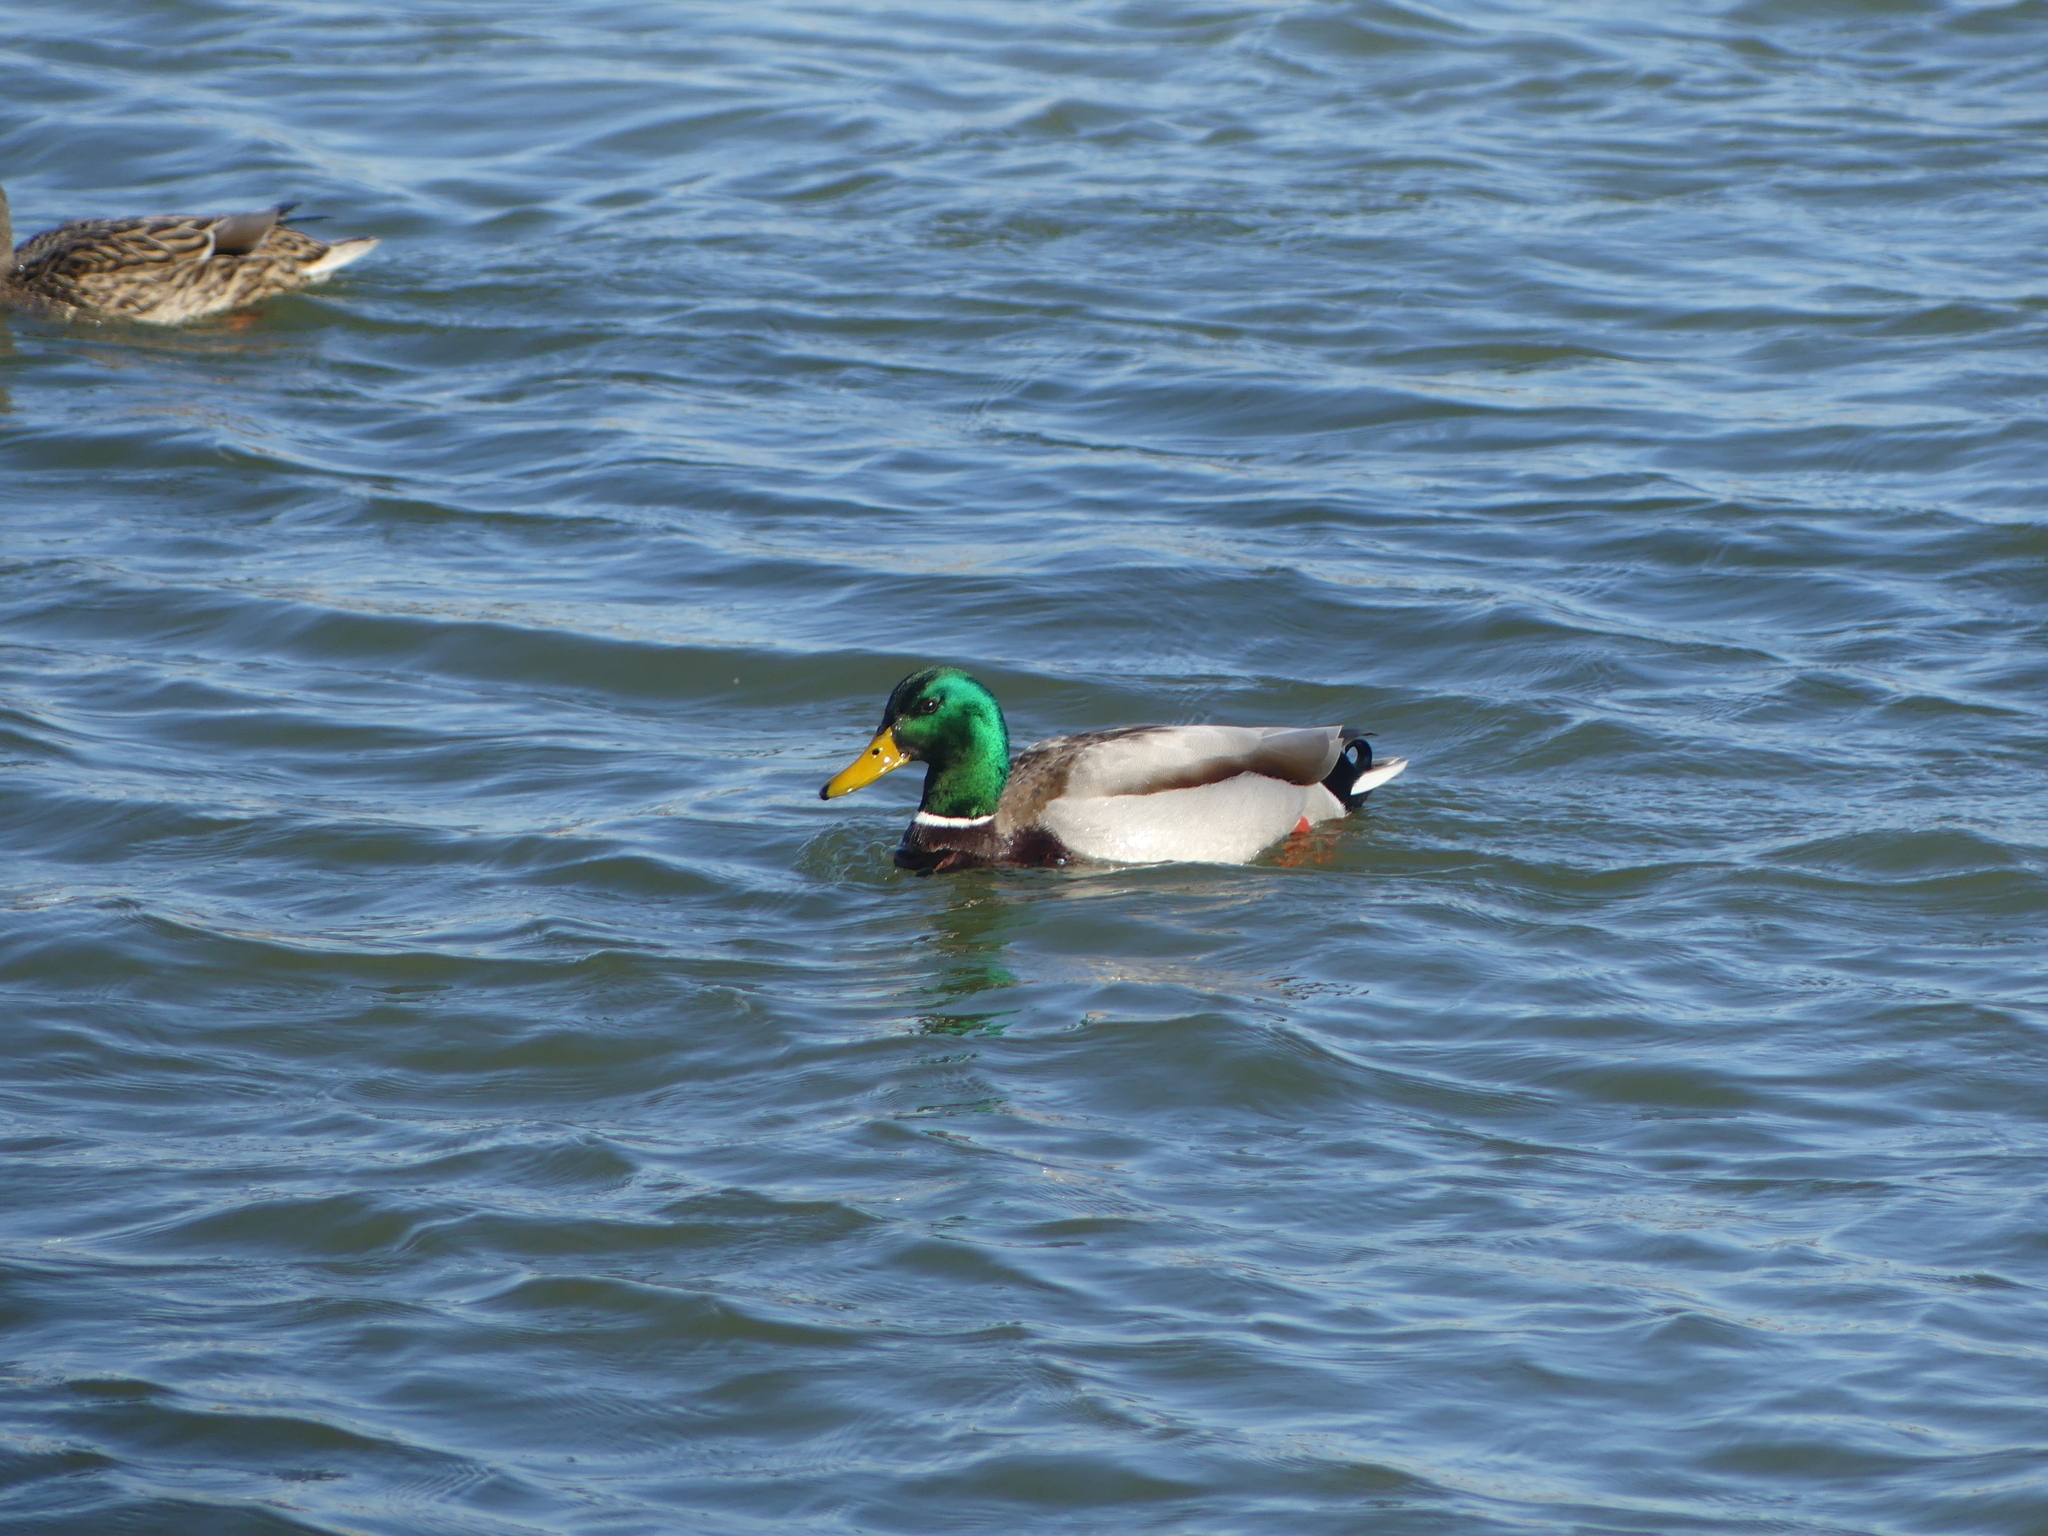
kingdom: Animalia
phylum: Chordata
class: Aves
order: Anseriformes
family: Anatidae
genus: Anas
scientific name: Anas platyrhynchos
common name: Mallard
